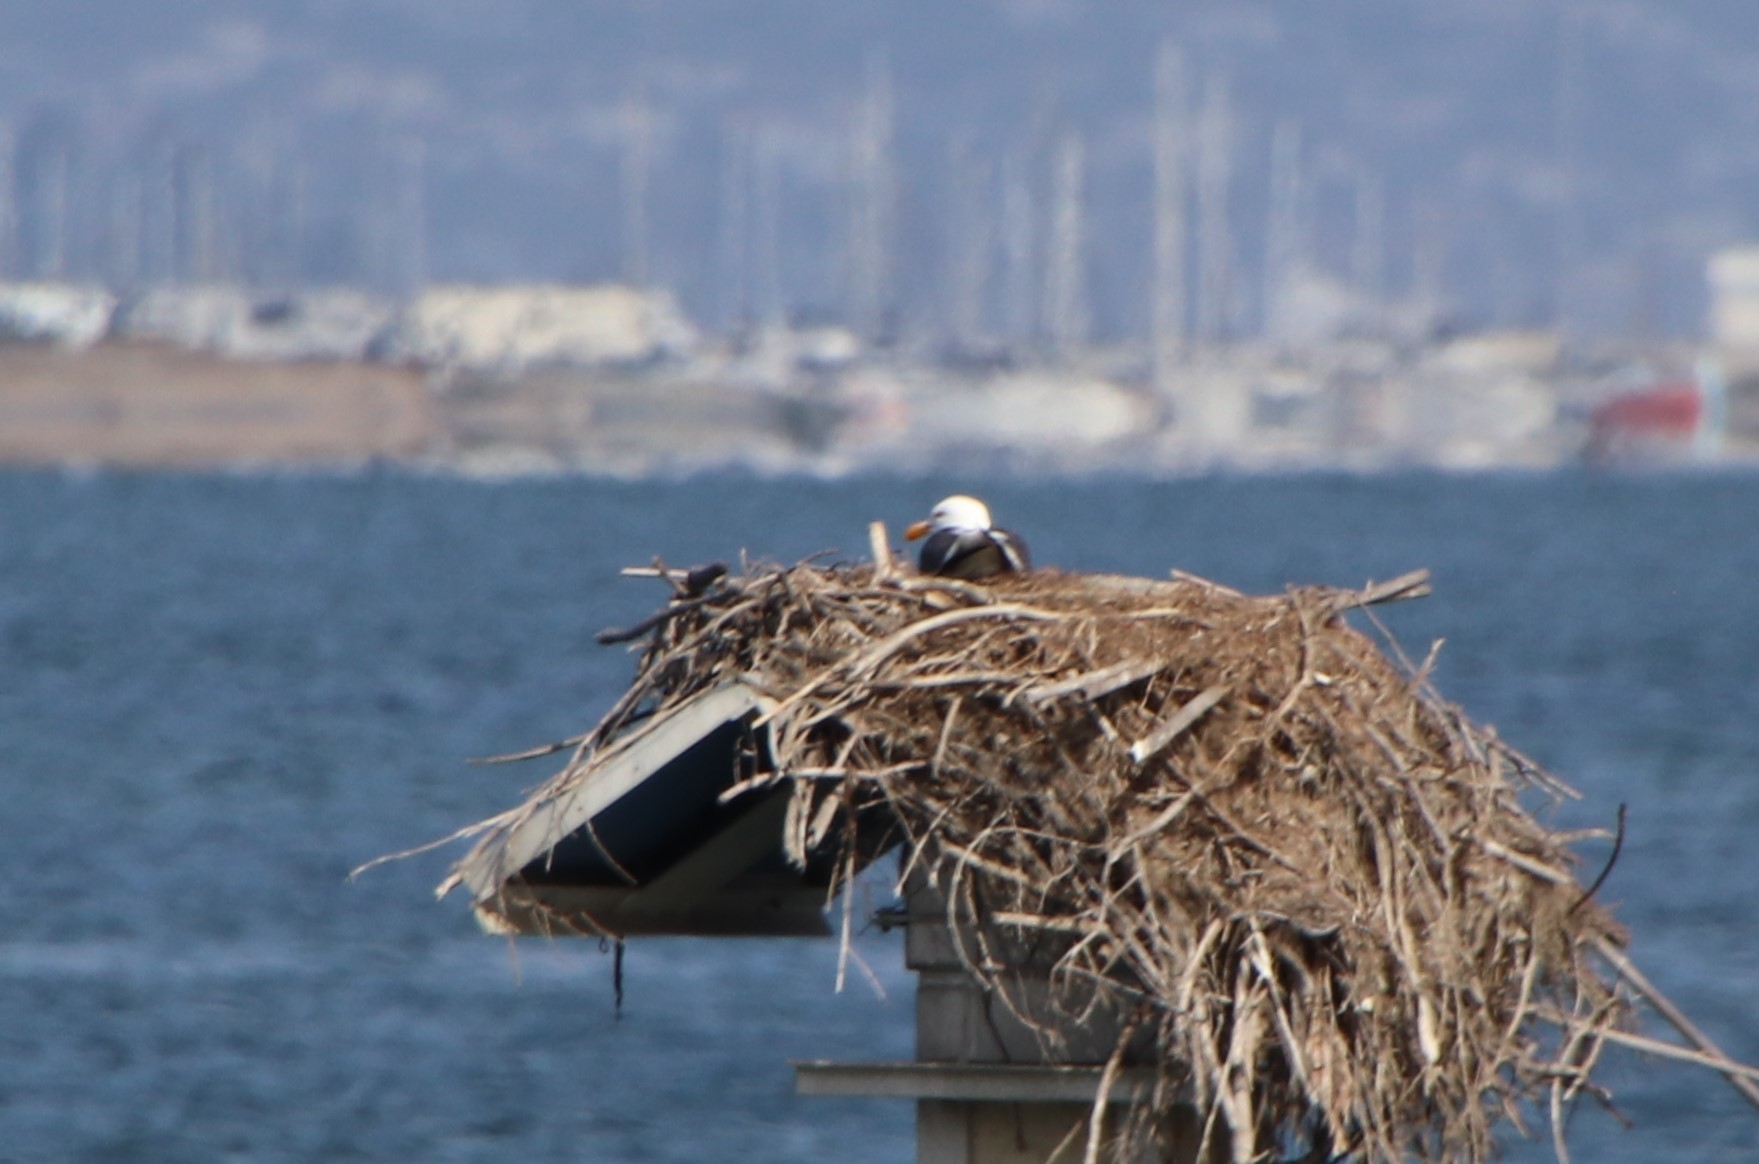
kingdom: Animalia
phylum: Chordata
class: Aves
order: Charadriiformes
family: Laridae
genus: Larus
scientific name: Larus occidentalis
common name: Western gull
